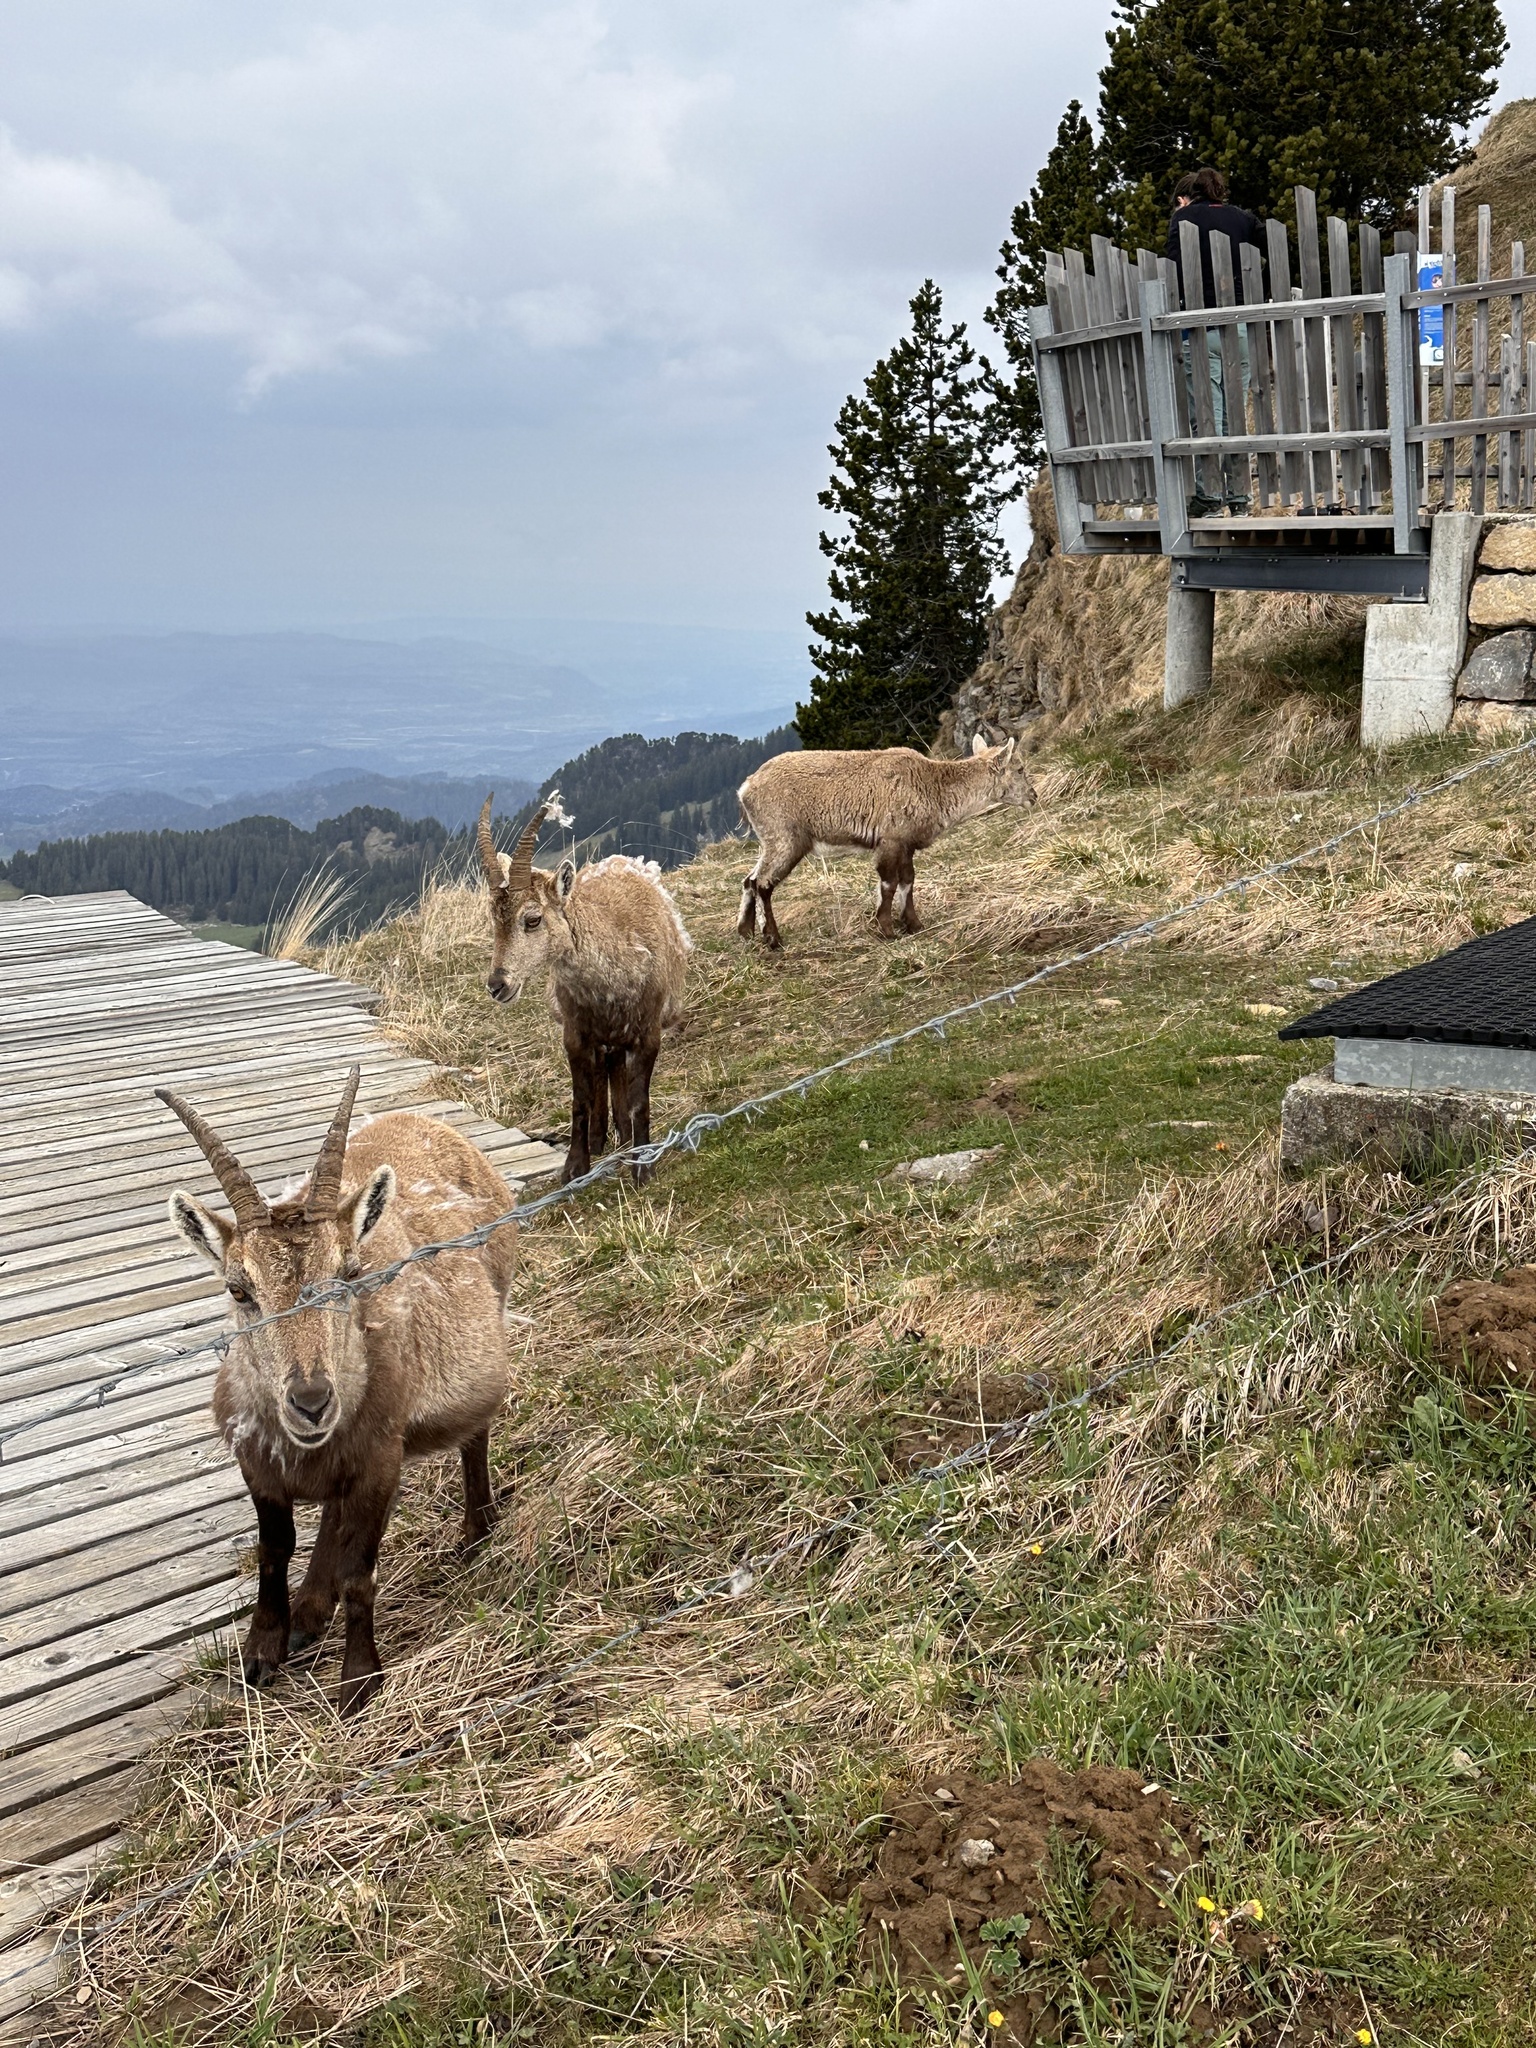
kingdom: Animalia
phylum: Chordata
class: Mammalia
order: Artiodactyla
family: Bovidae
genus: Capra
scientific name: Capra ibex
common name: Alpine ibex
